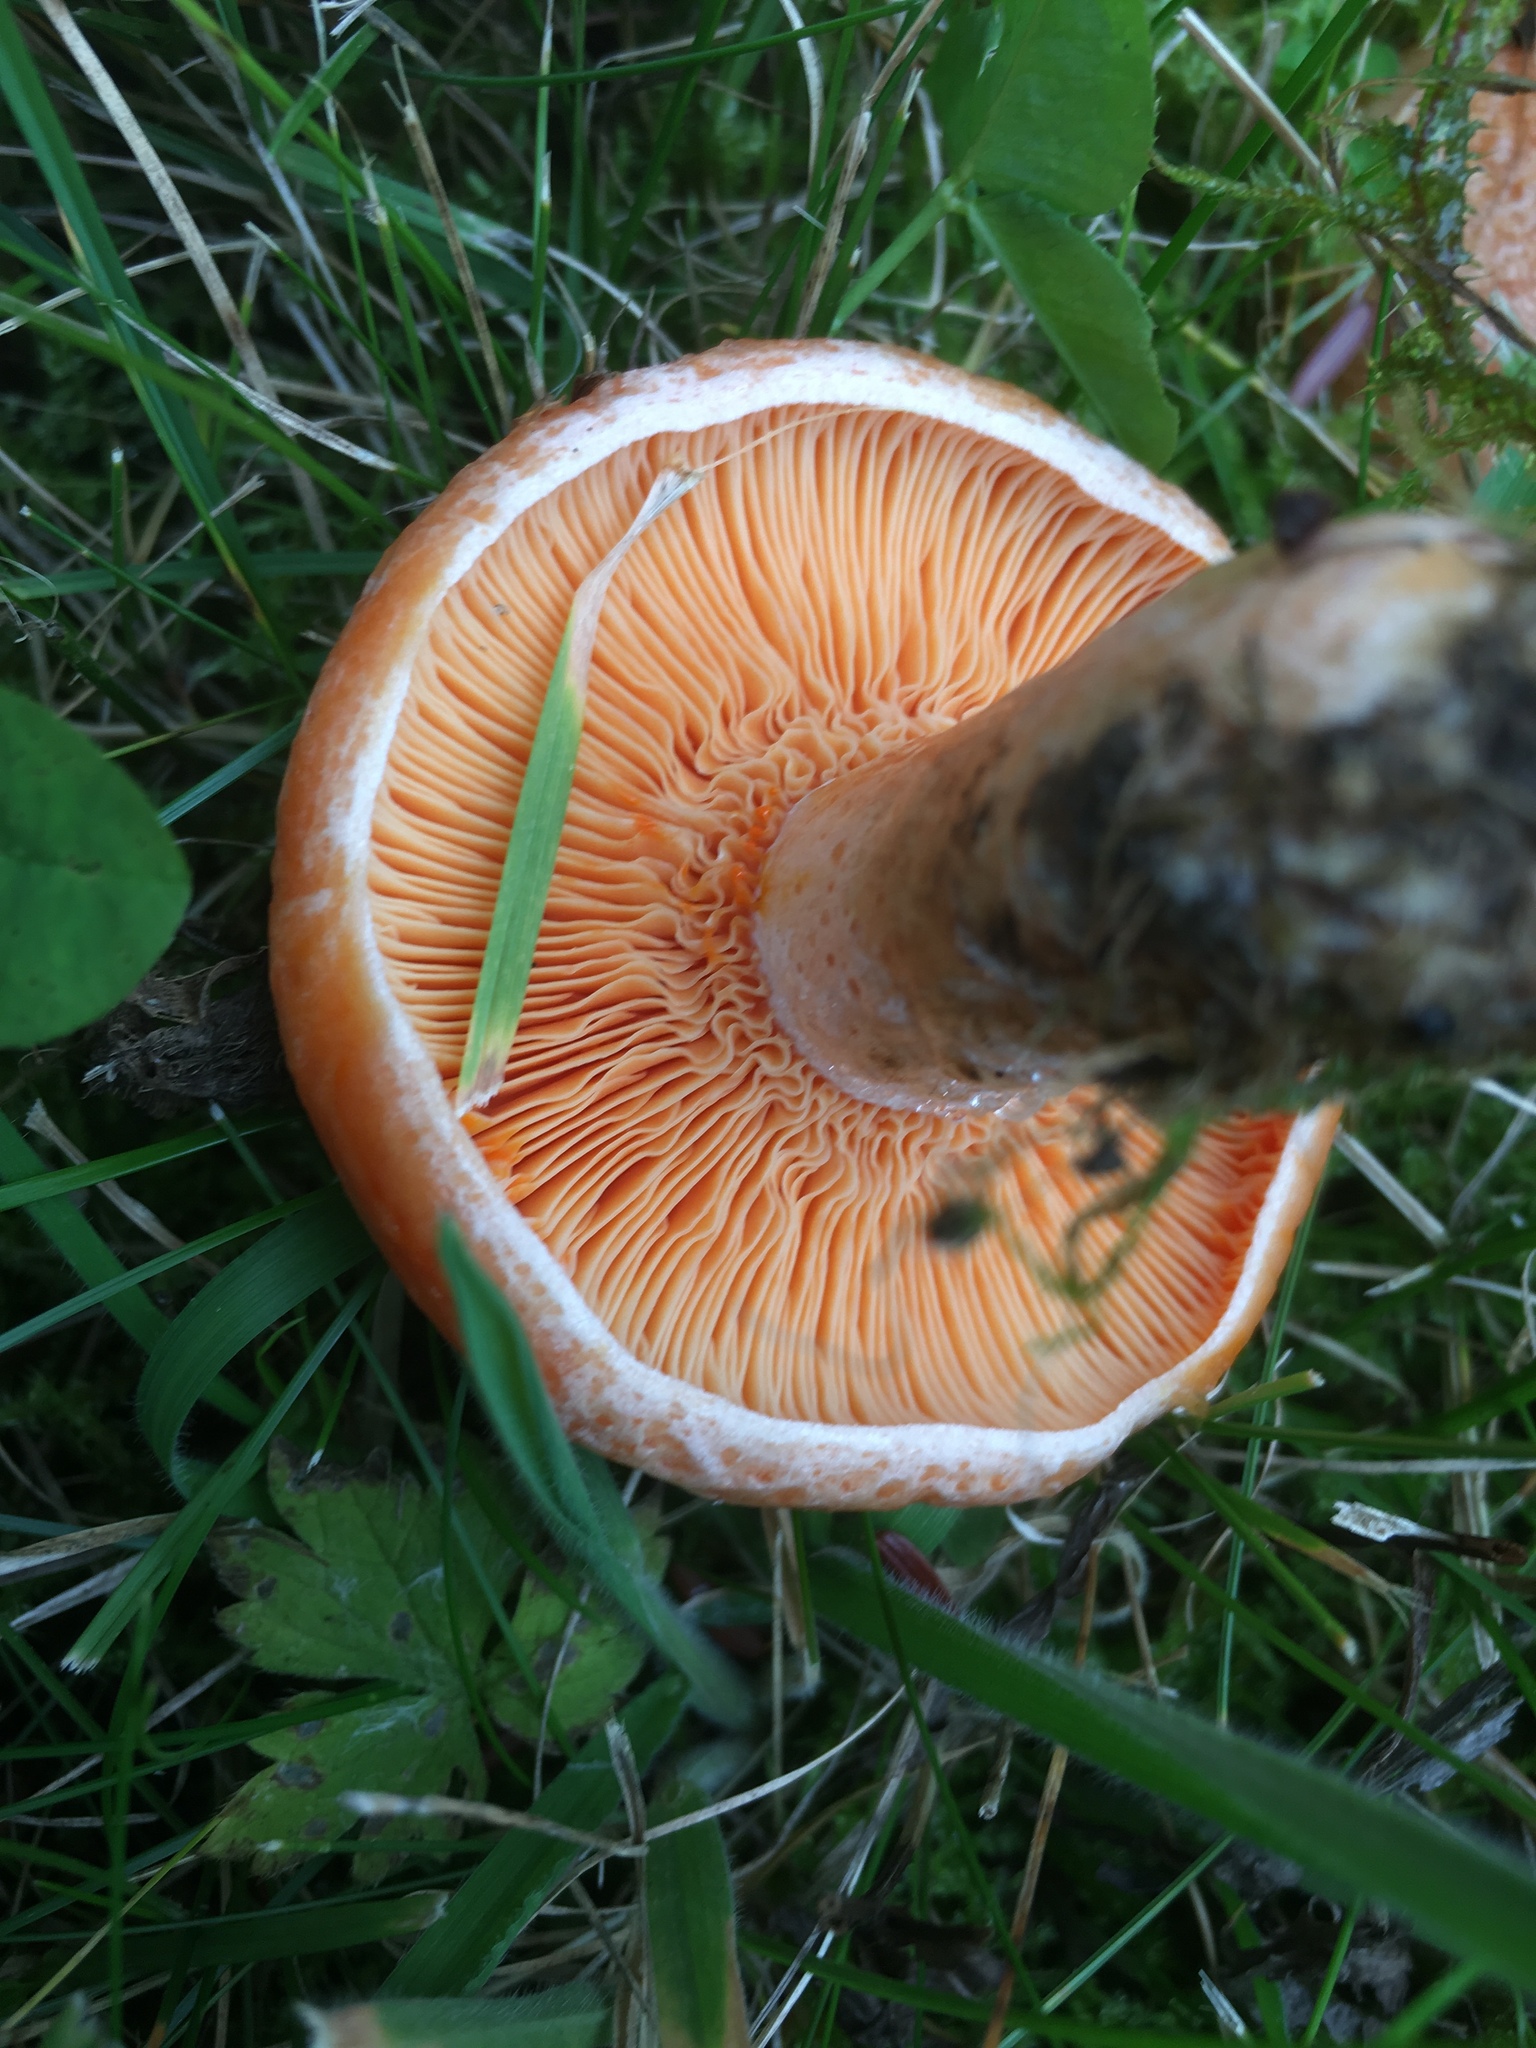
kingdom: Fungi
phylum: Basidiomycota
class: Agaricomycetes
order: Russulales
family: Russulaceae
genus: Lactarius
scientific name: Lactarius deliciosus
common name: Saffron milk-cap
